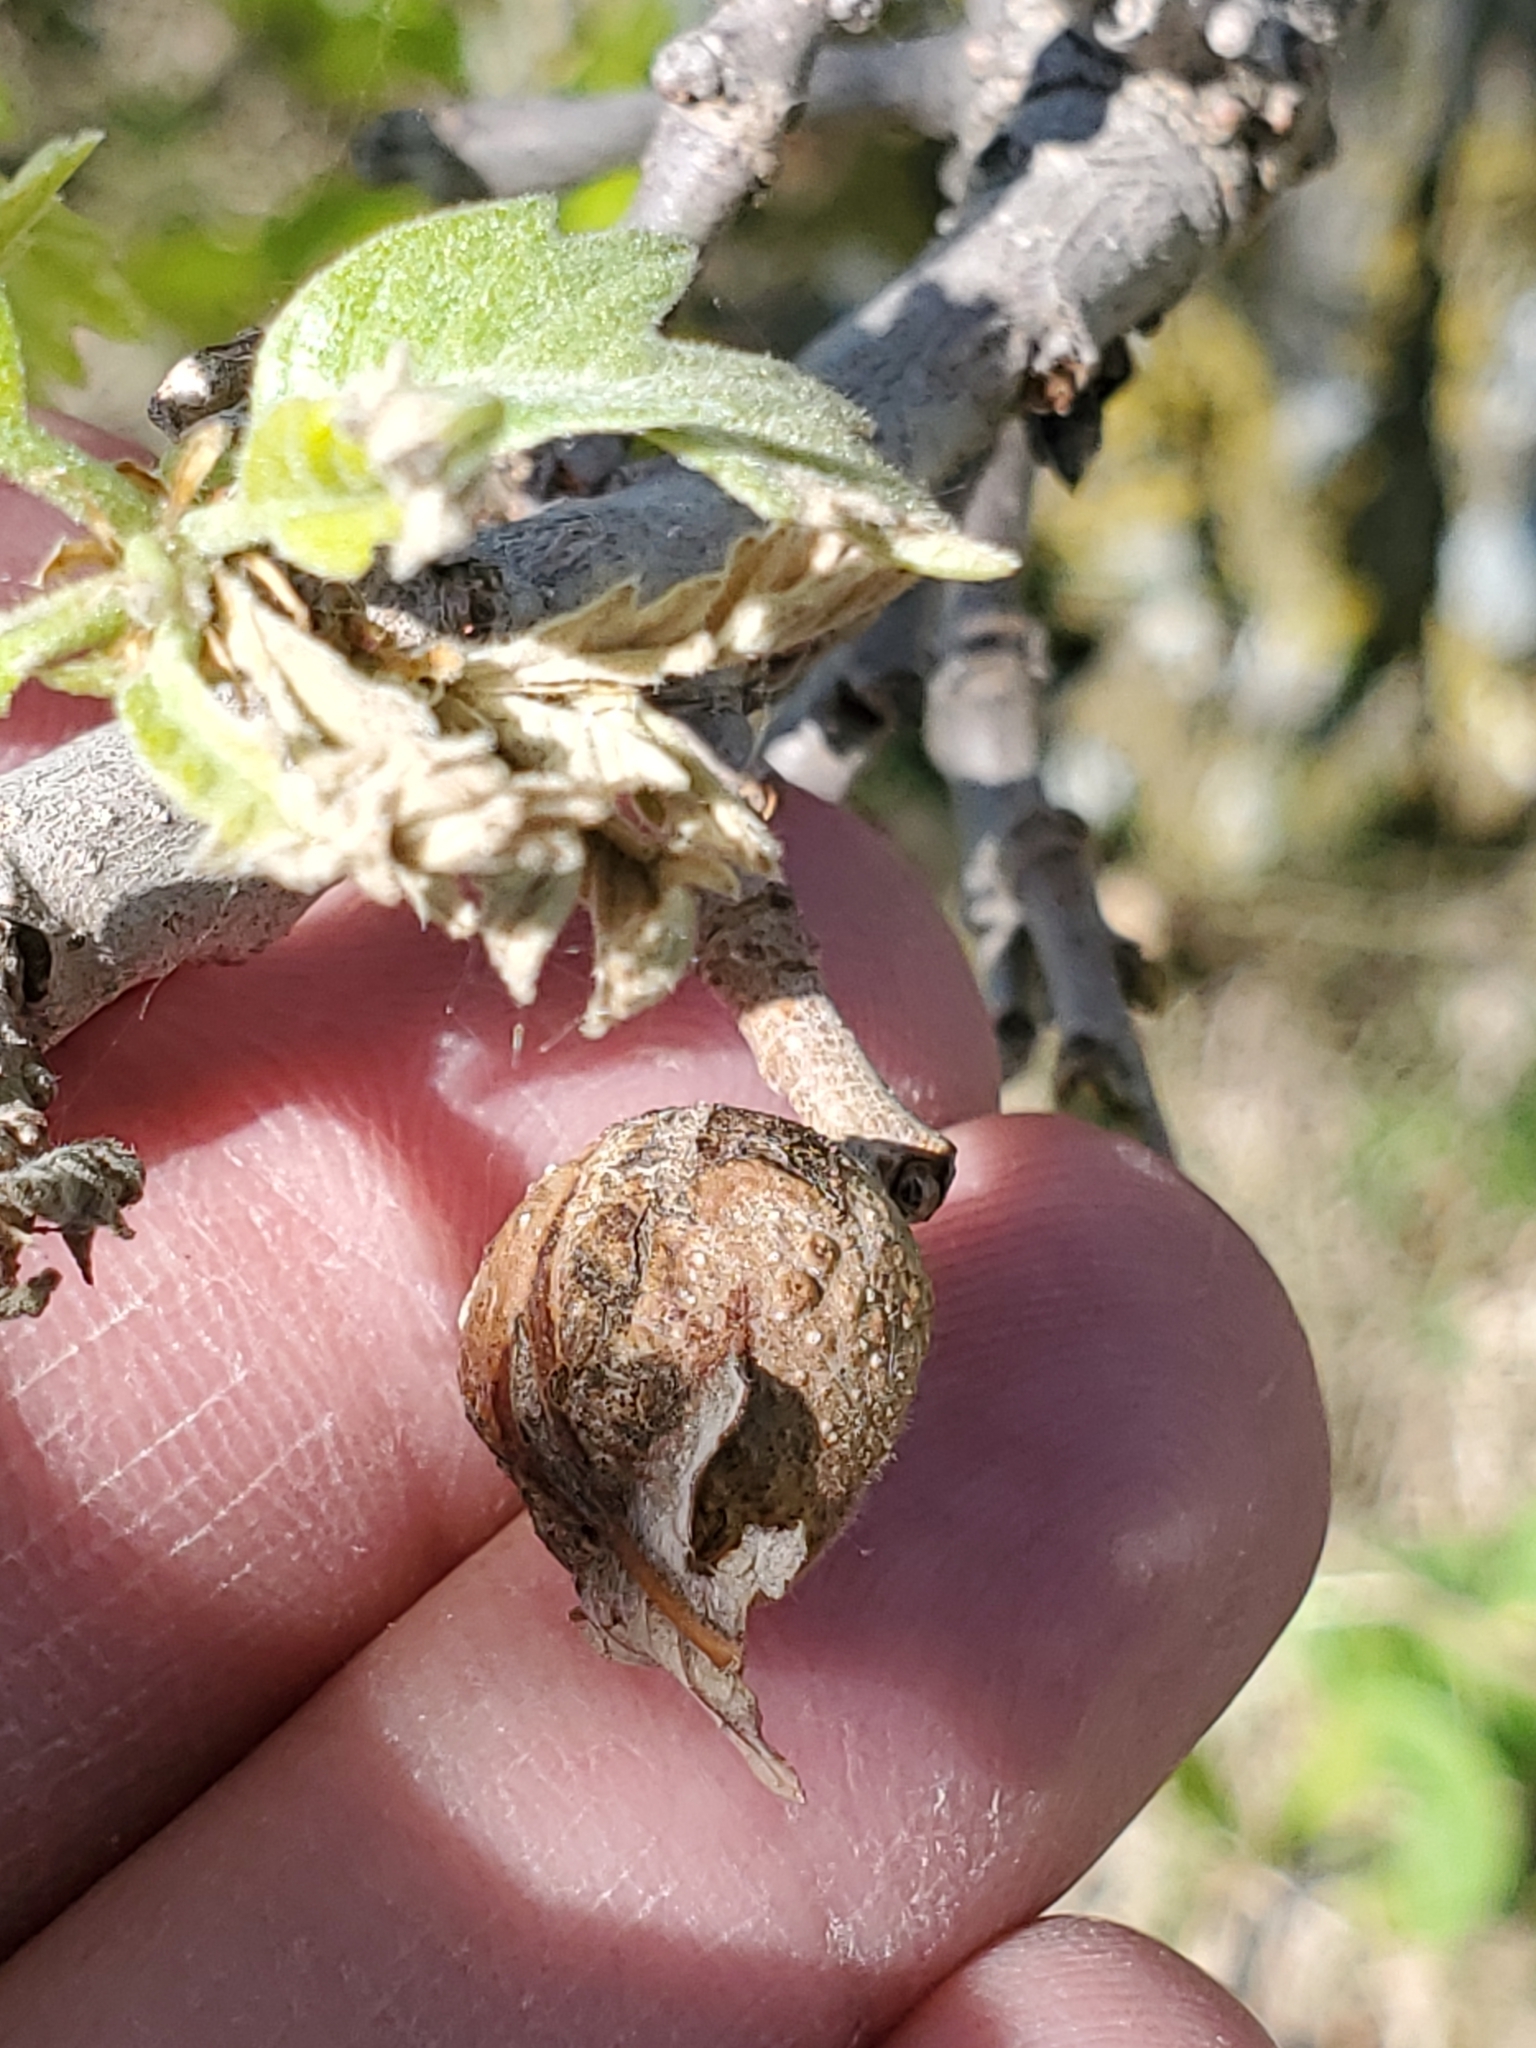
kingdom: Animalia
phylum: Arthropoda
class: Insecta
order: Hymenoptera
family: Cynipidae
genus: Andricus
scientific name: Andricus
